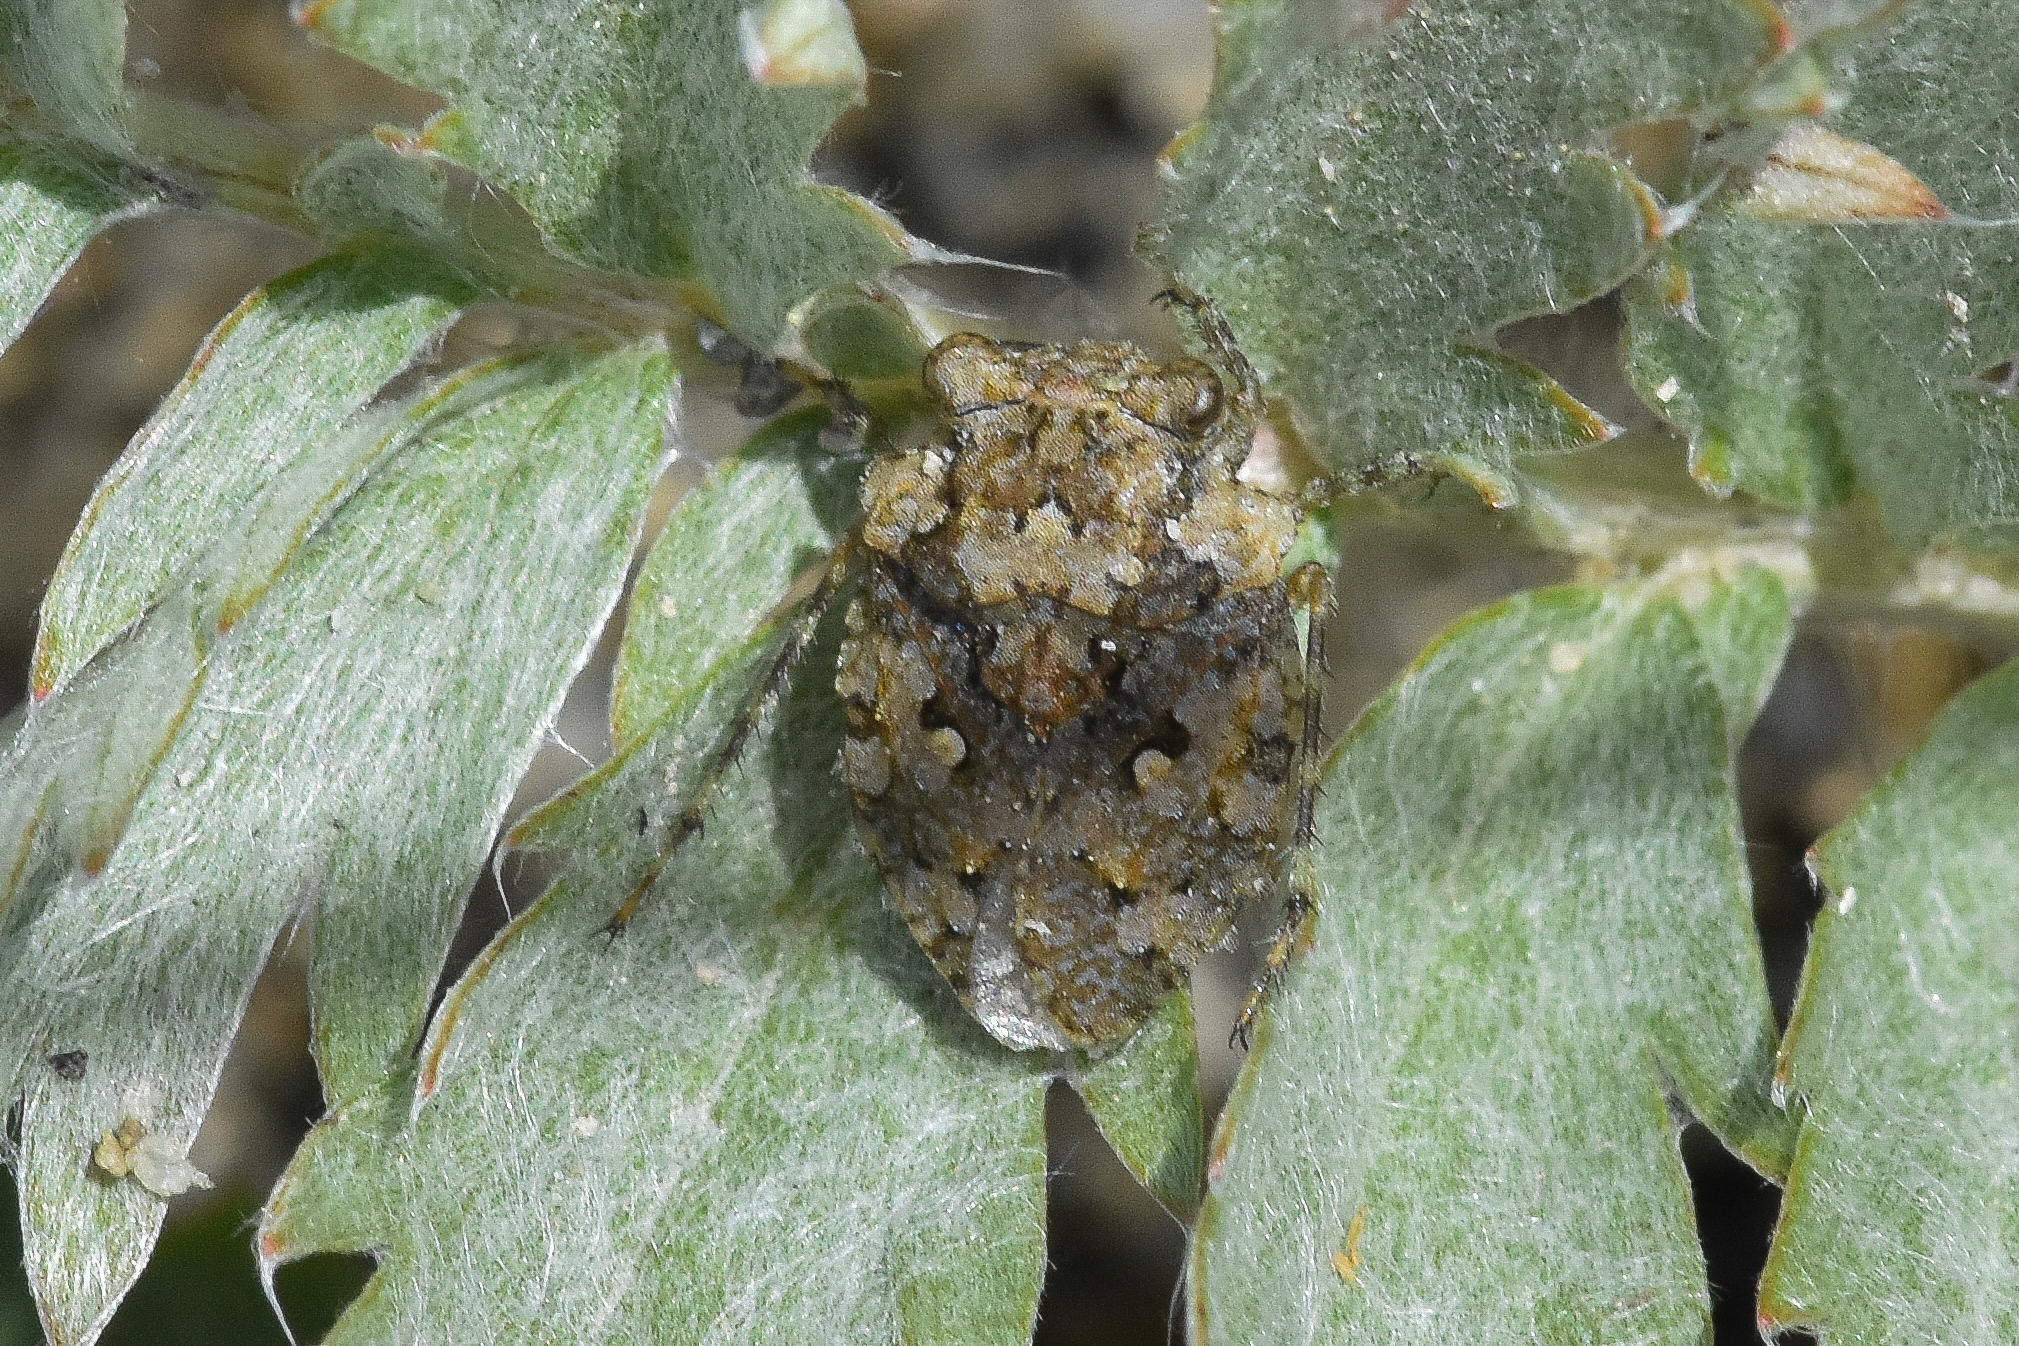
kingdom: Animalia
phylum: Arthropoda
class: Insecta
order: Hemiptera
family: Gelastocoridae
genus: Gelastocoris
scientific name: Gelastocoris oculatus
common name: Toad bug
